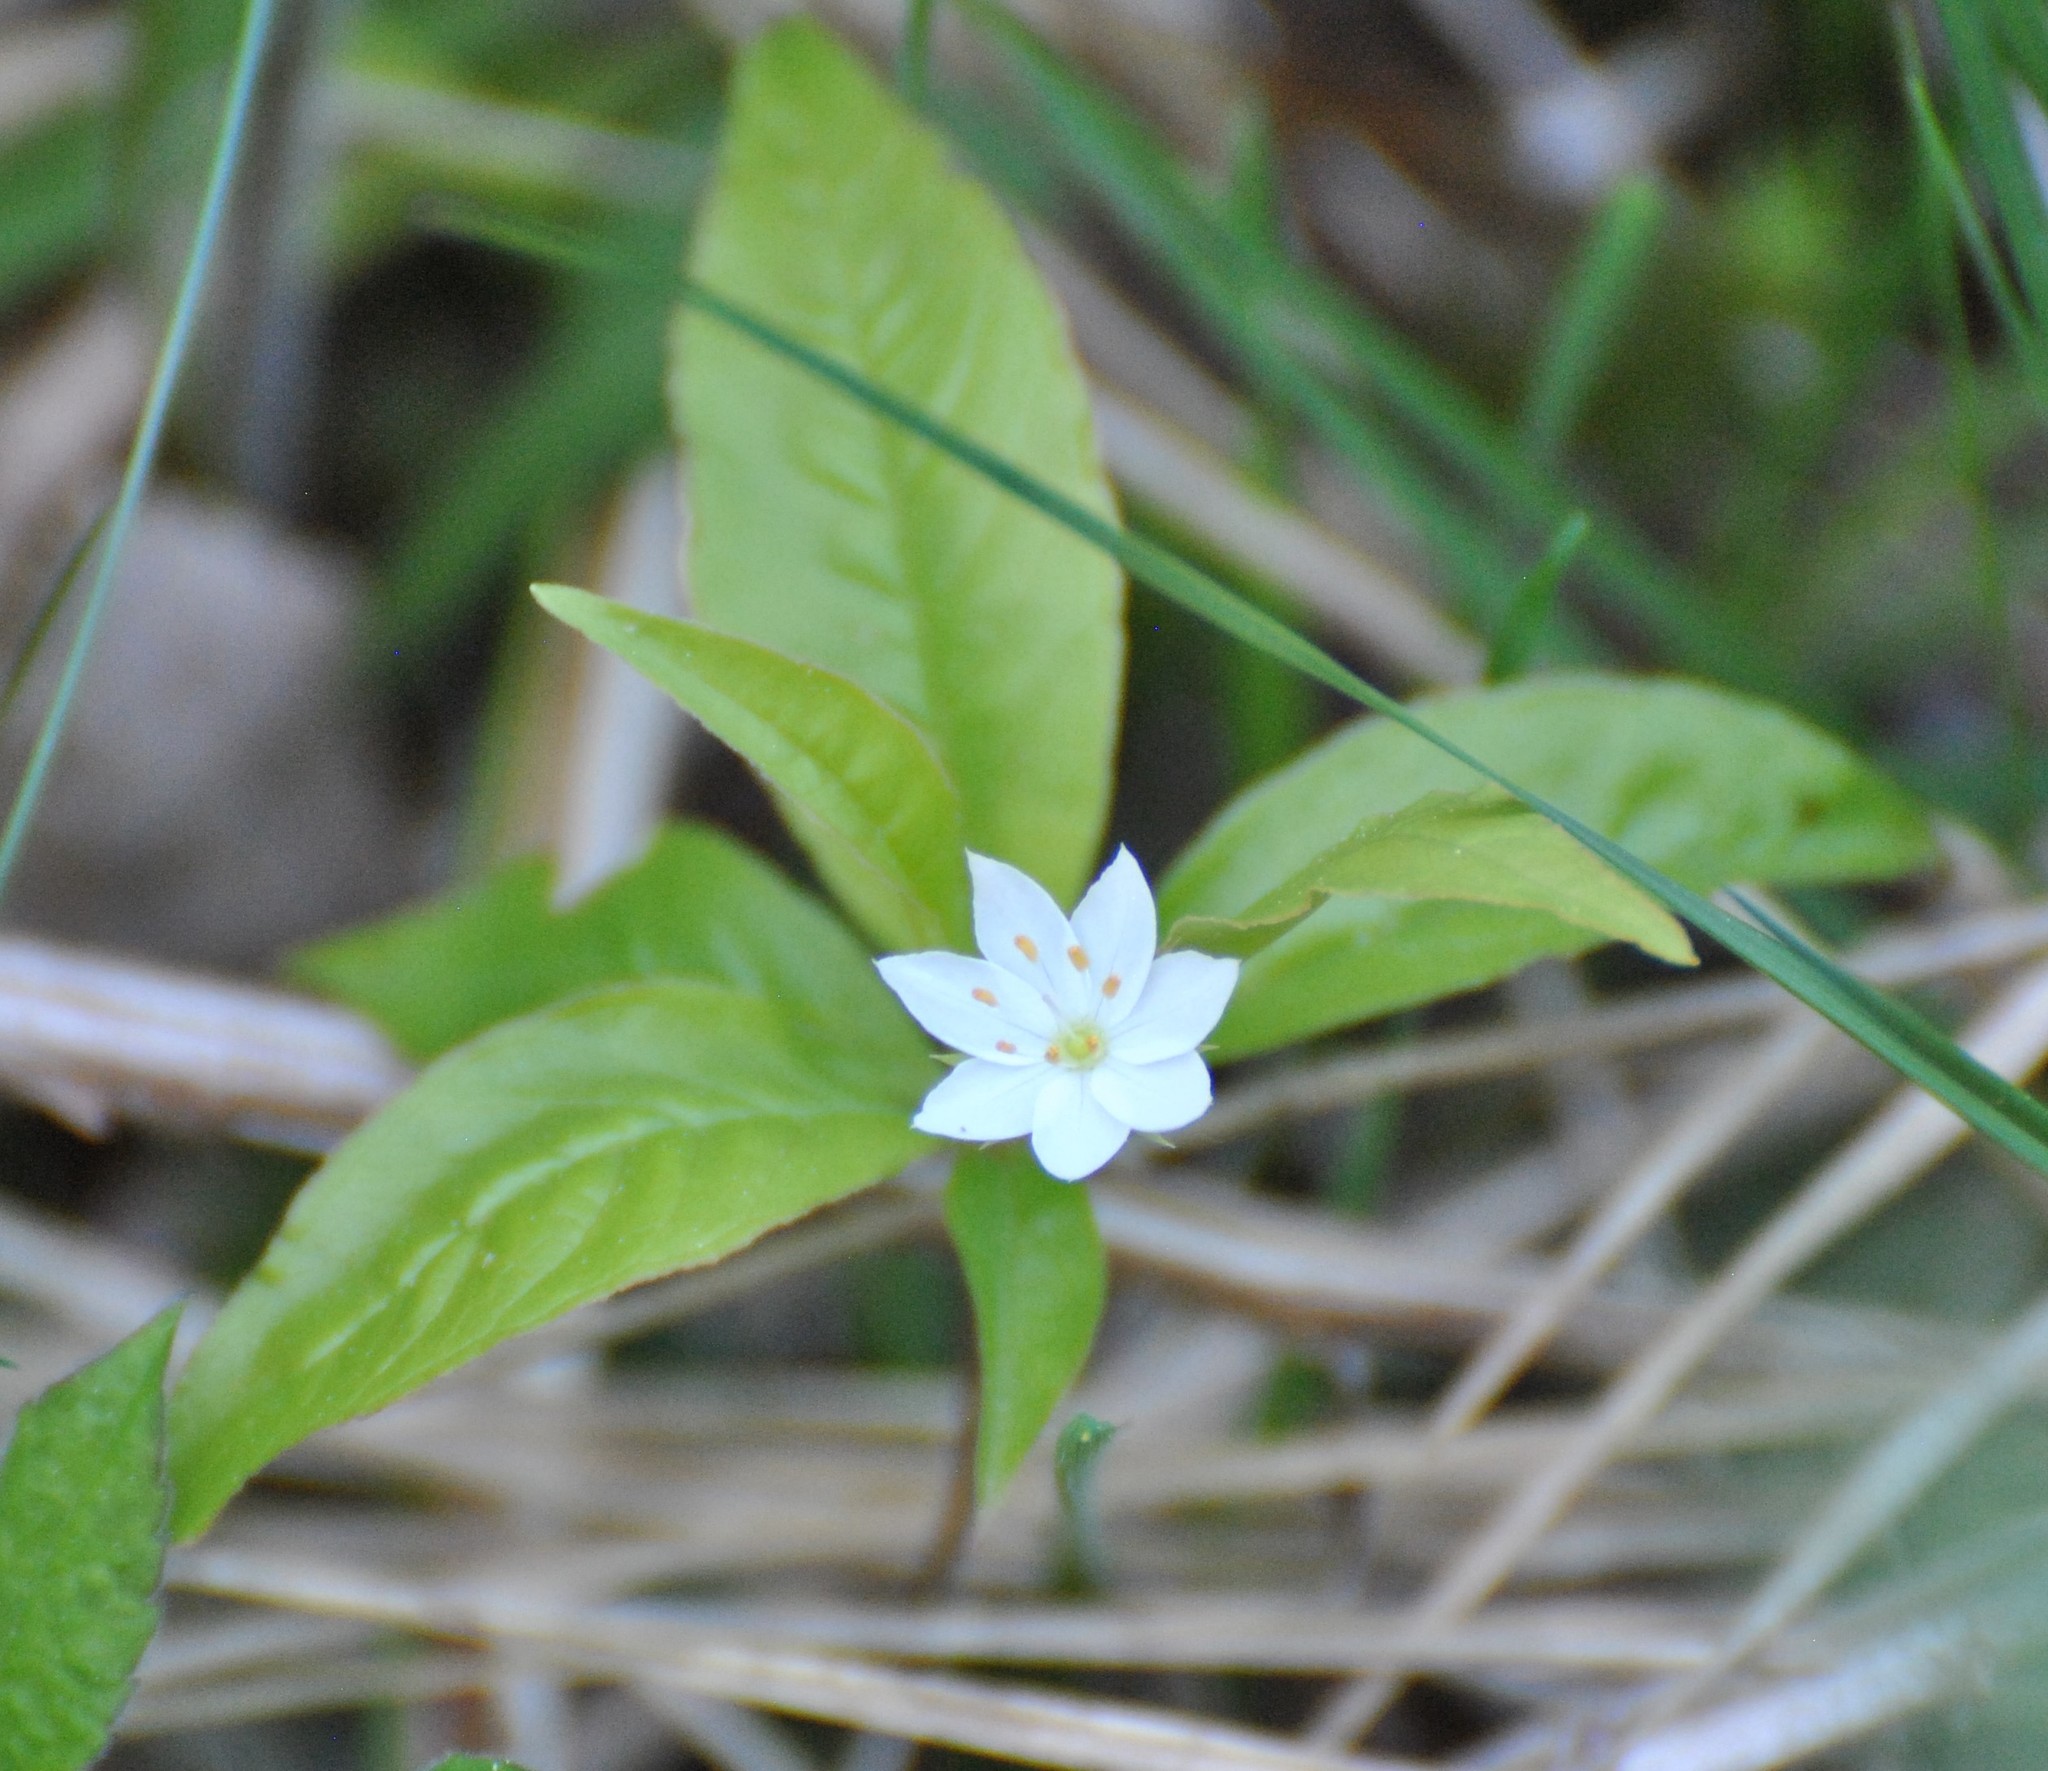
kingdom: Plantae
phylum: Tracheophyta
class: Magnoliopsida
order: Ericales
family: Primulaceae
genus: Lysimachia
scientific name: Lysimachia borealis
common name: American starflower
